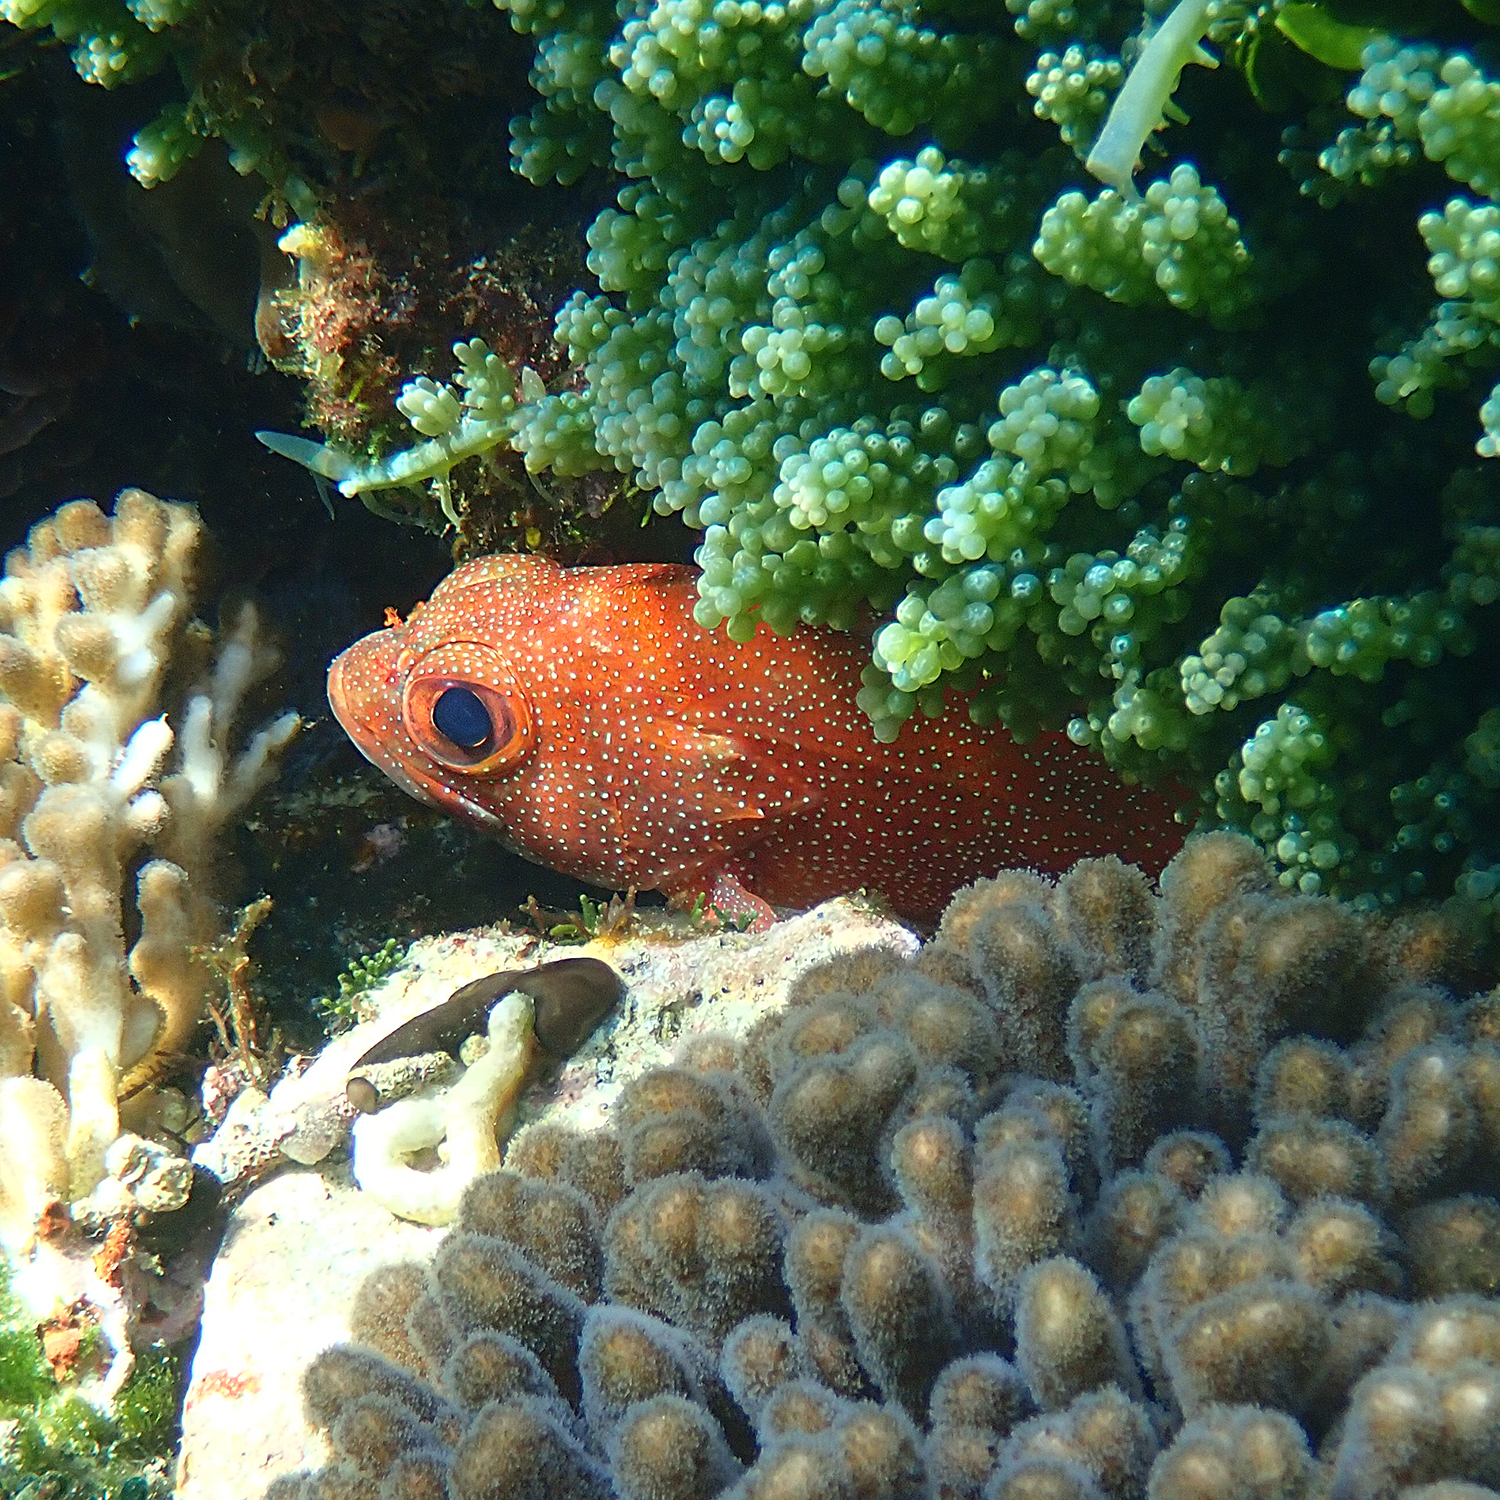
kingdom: Animalia
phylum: Chordata
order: Perciformes
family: Serranidae
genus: Trachypoma
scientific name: Trachypoma macracanthus
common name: Toadstool grouper
